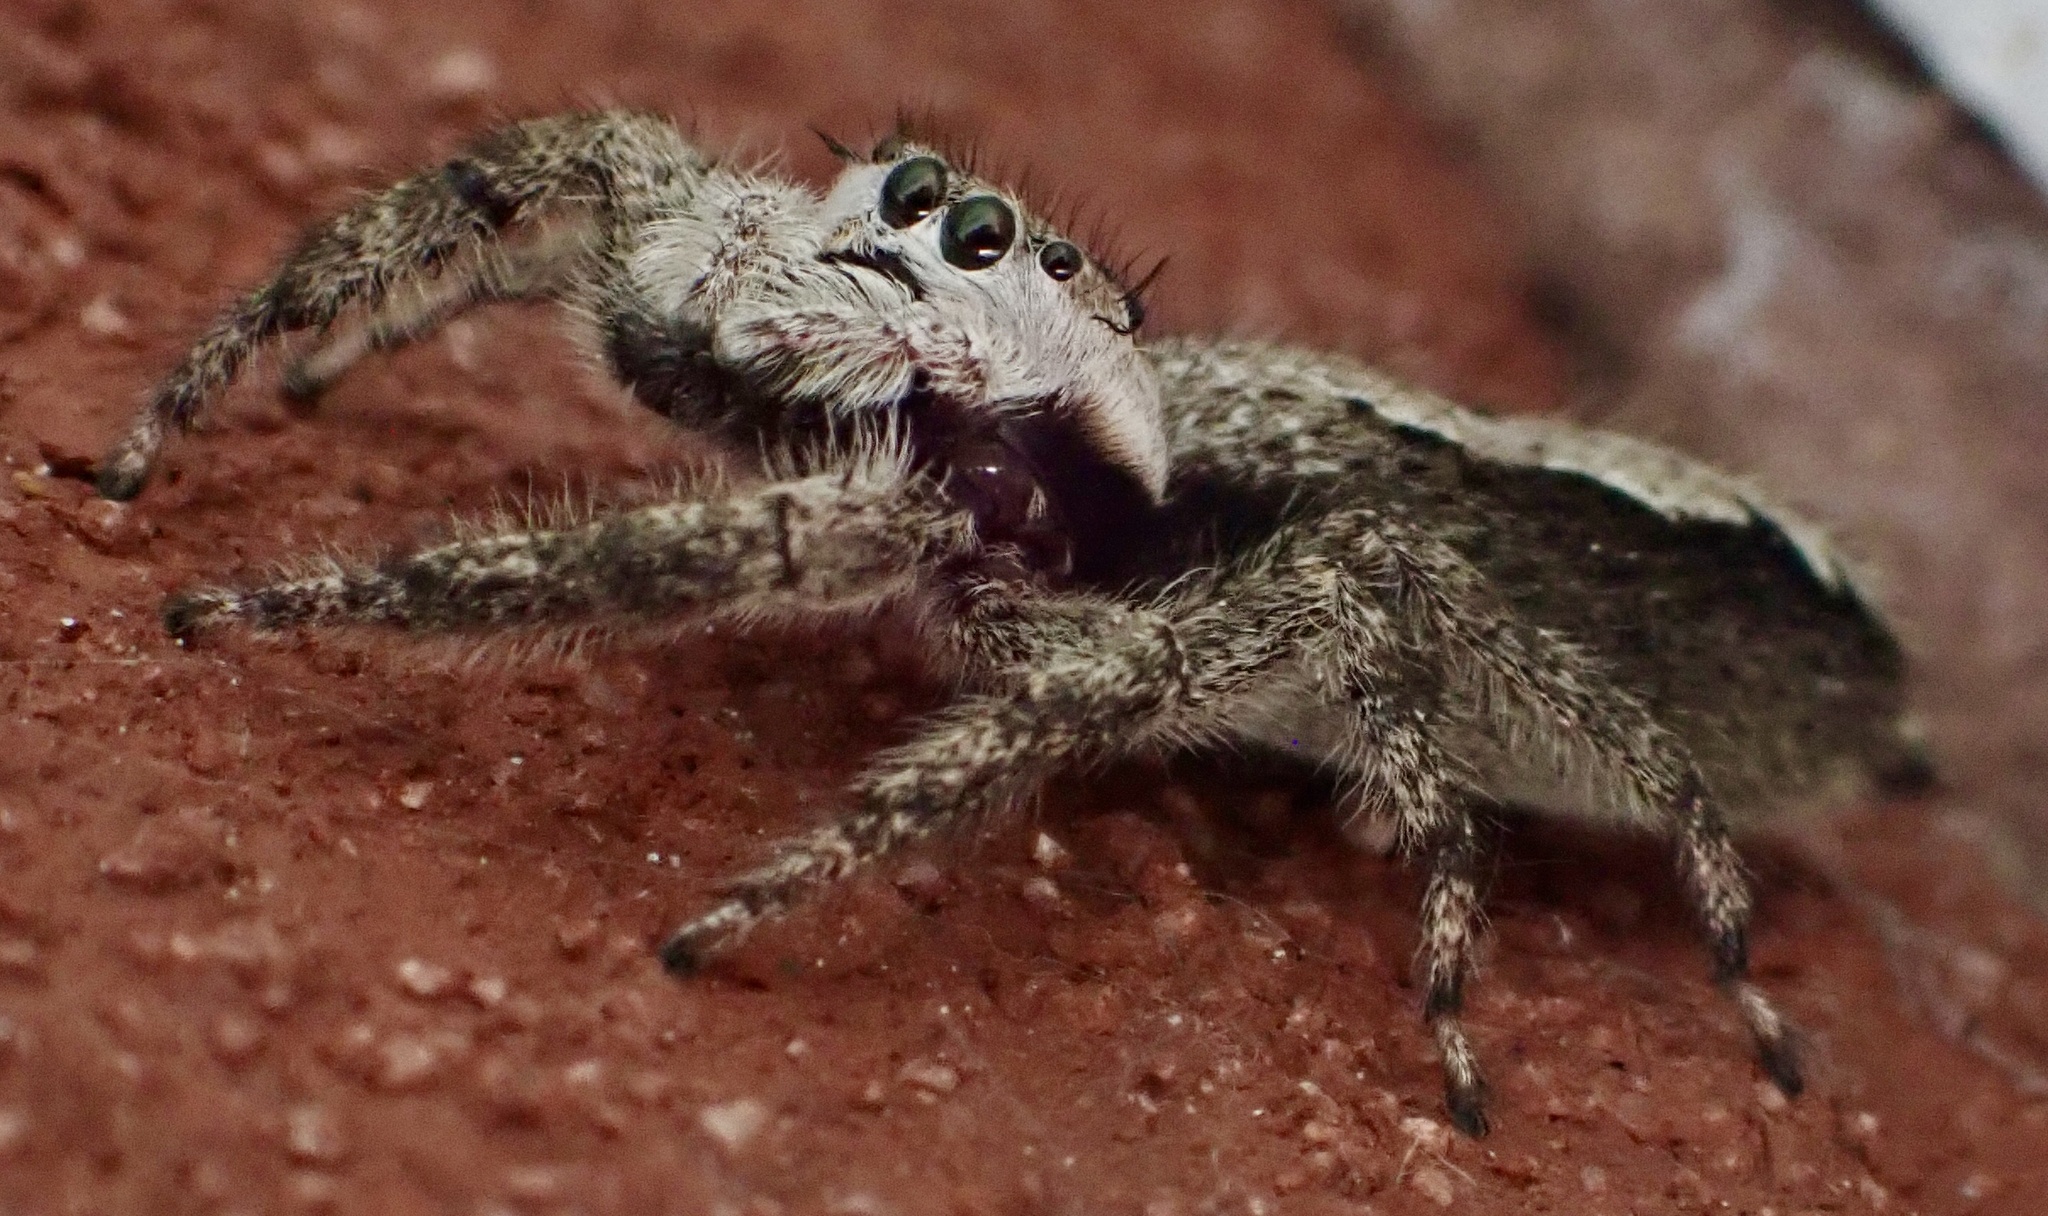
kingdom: Animalia
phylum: Arthropoda
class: Arachnida
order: Araneae
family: Salticidae
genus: Platycryptus
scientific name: Platycryptus undatus
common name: Tan jumping spider
